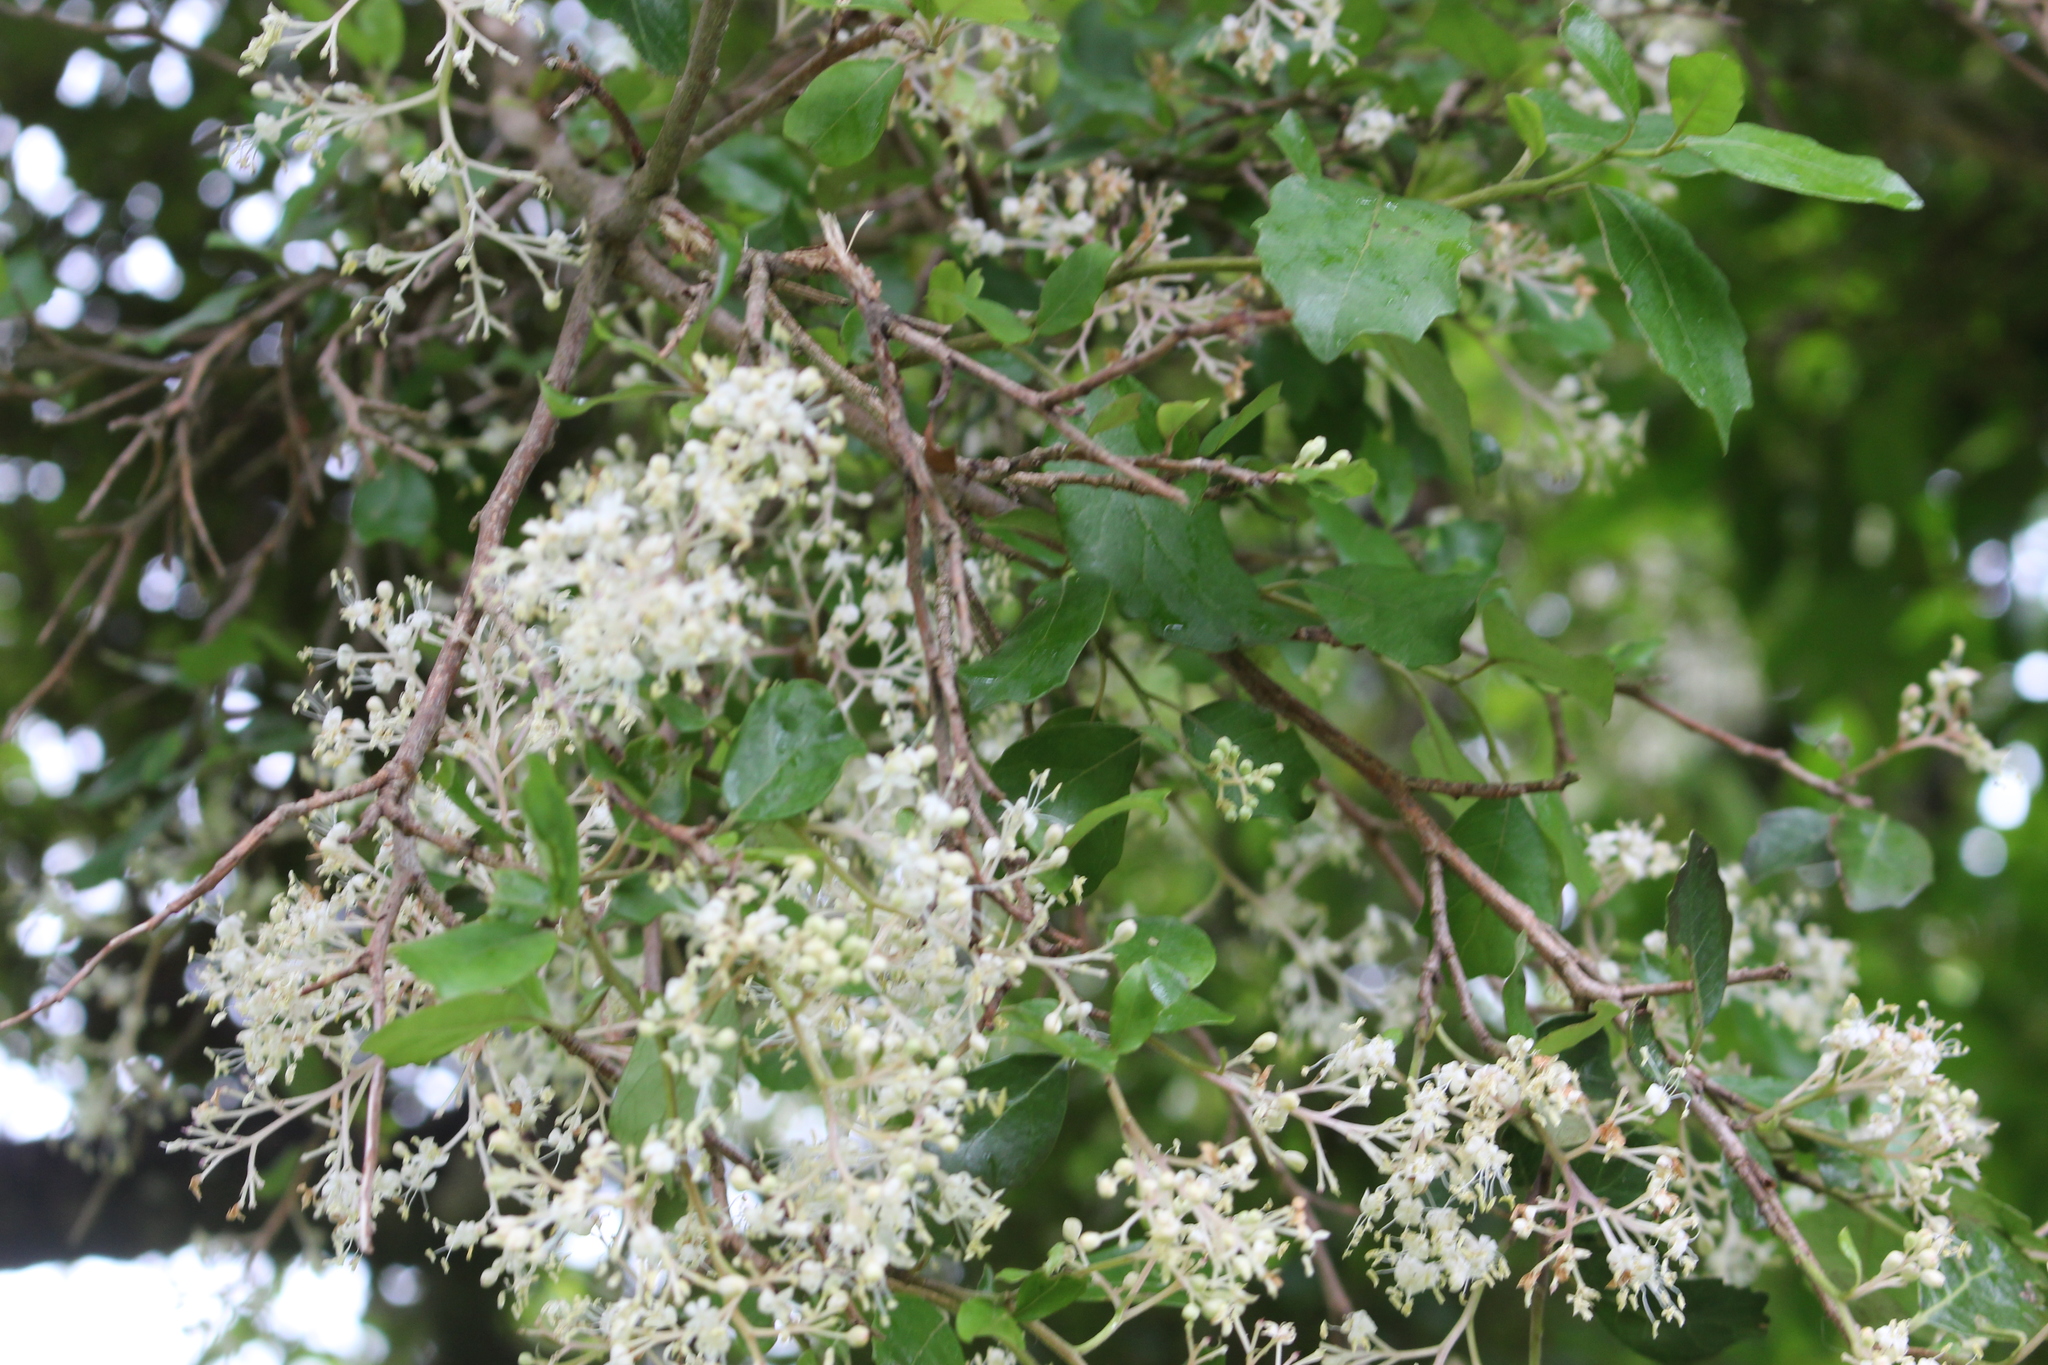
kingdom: Plantae
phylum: Tracheophyta
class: Magnoliopsida
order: Apiales
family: Pennantiaceae
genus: Pennantia
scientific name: Pennantia corymbosa
